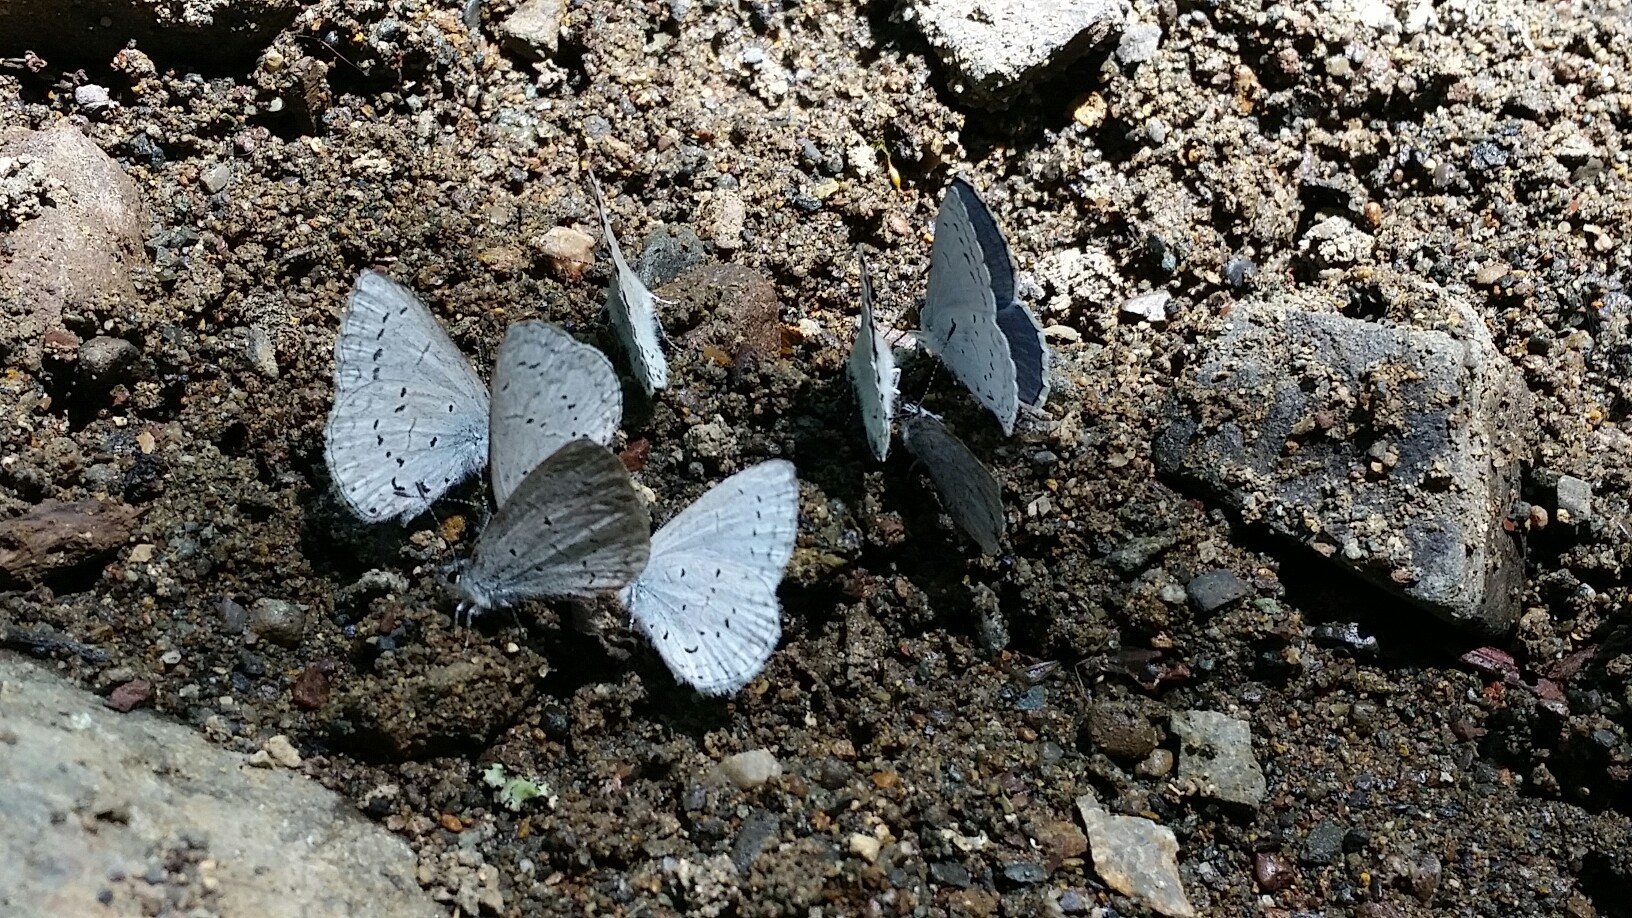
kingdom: Animalia
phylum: Arthropoda
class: Insecta
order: Lepidoptera
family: Lycaenidae
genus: Celastrina
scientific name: Celastrina ladon
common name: Spring azure
